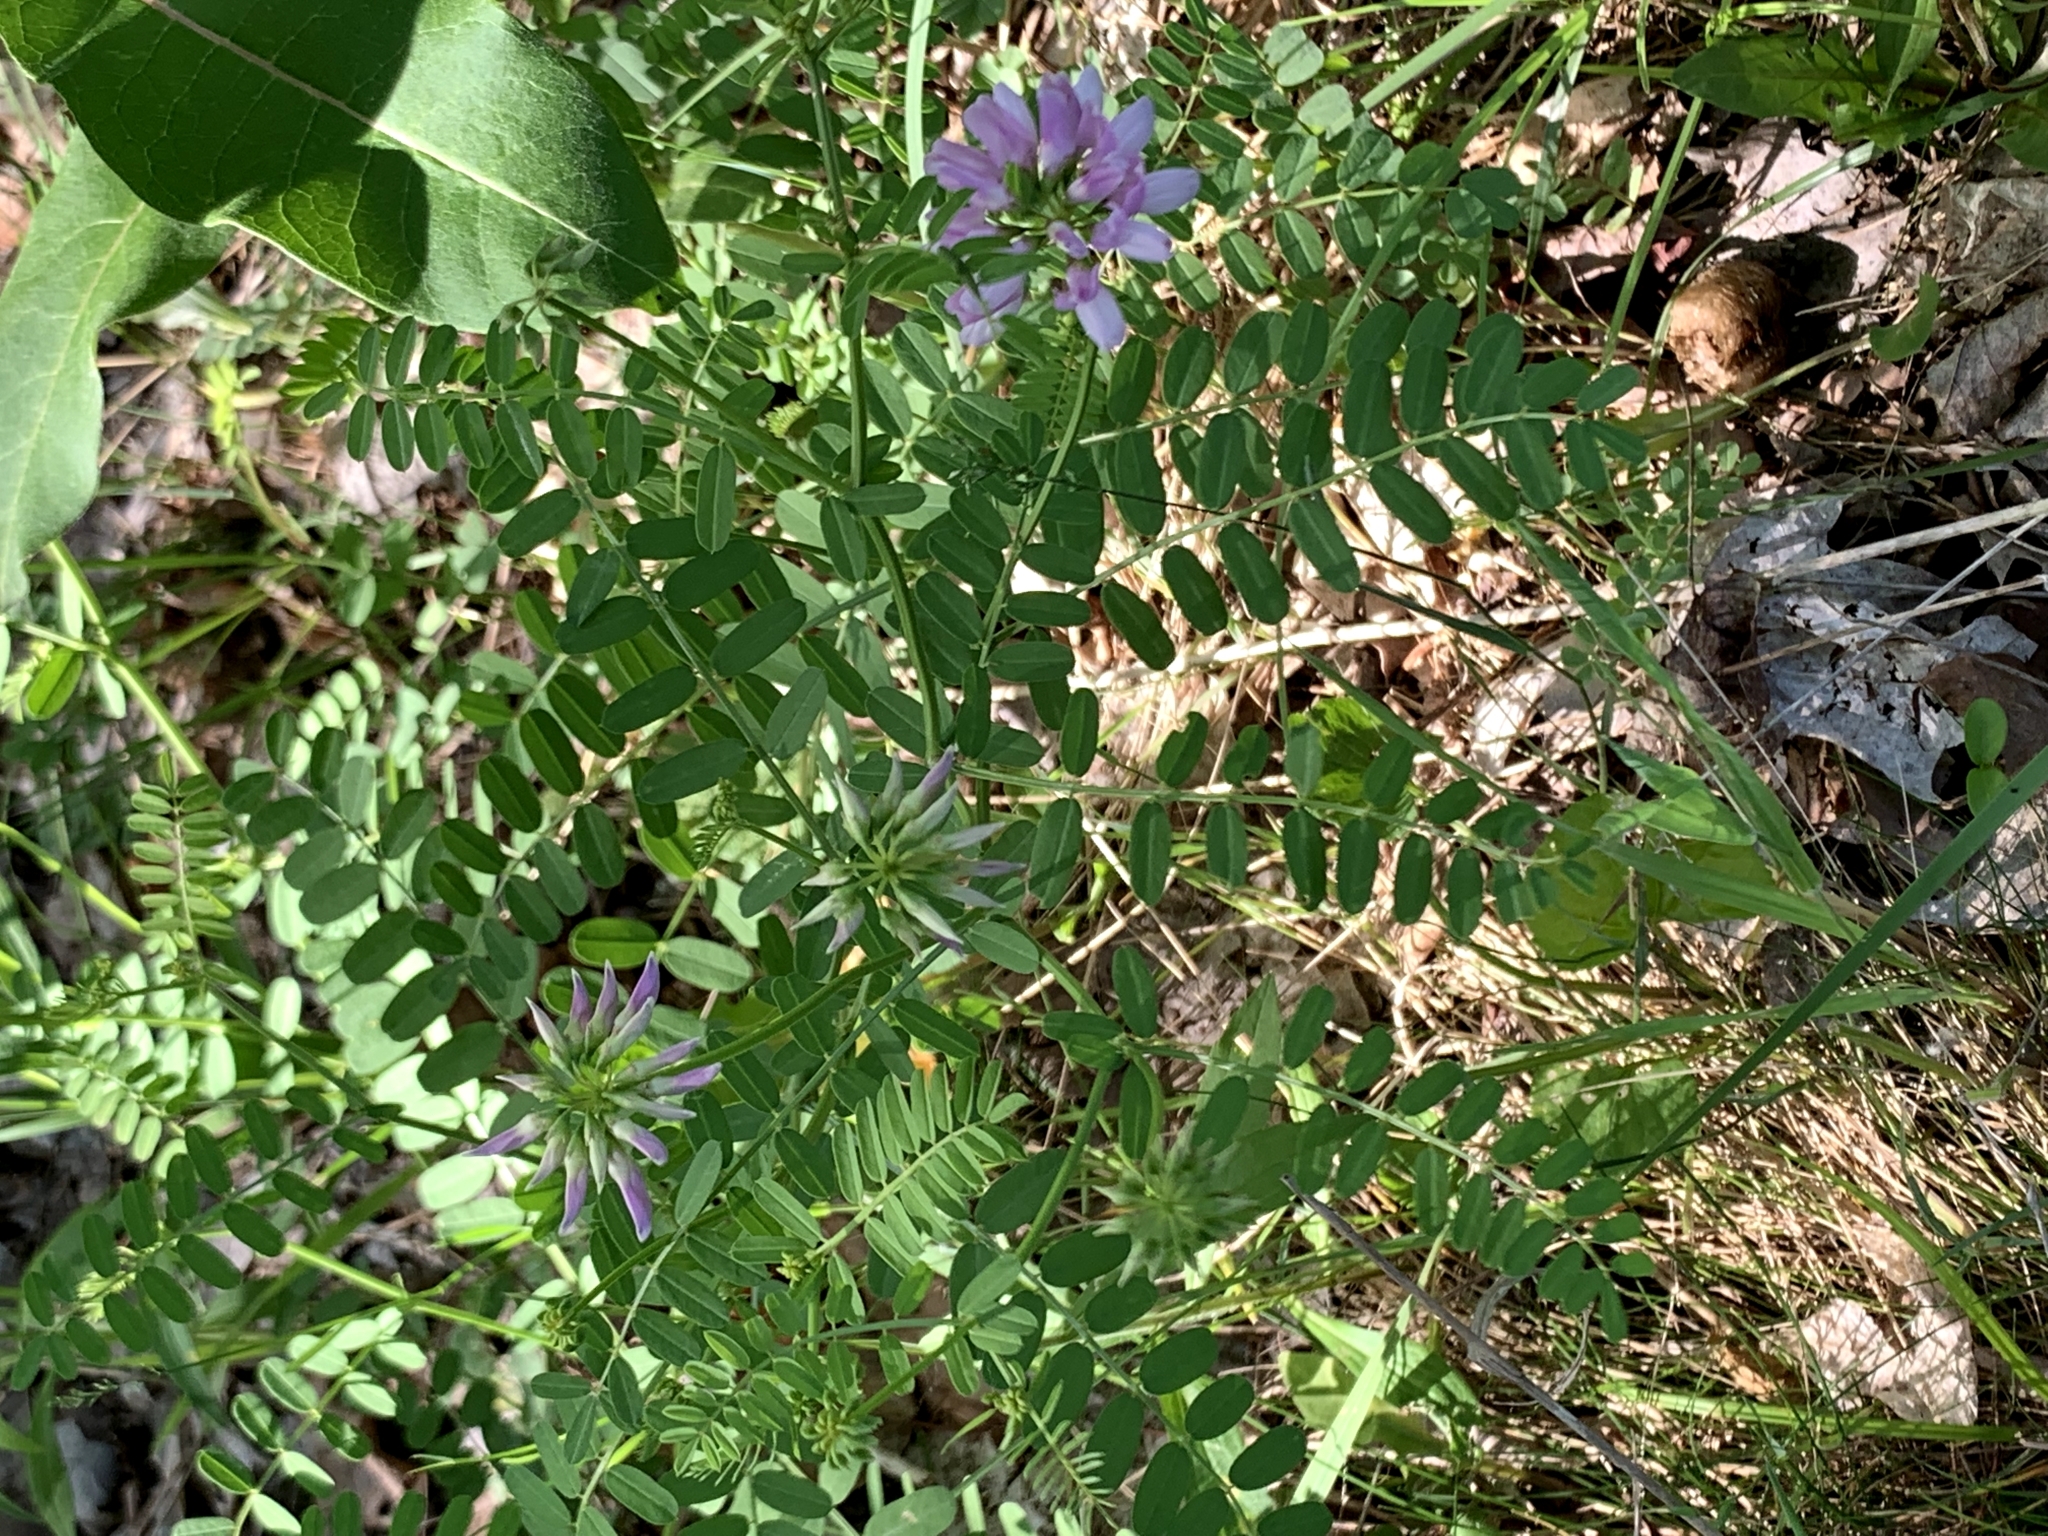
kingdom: Plantae
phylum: Tracheophyta
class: Magnoliopsida
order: Fabales
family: Fabaceae
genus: Coronilla
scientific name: Coronilla varia
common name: Crownvetch
